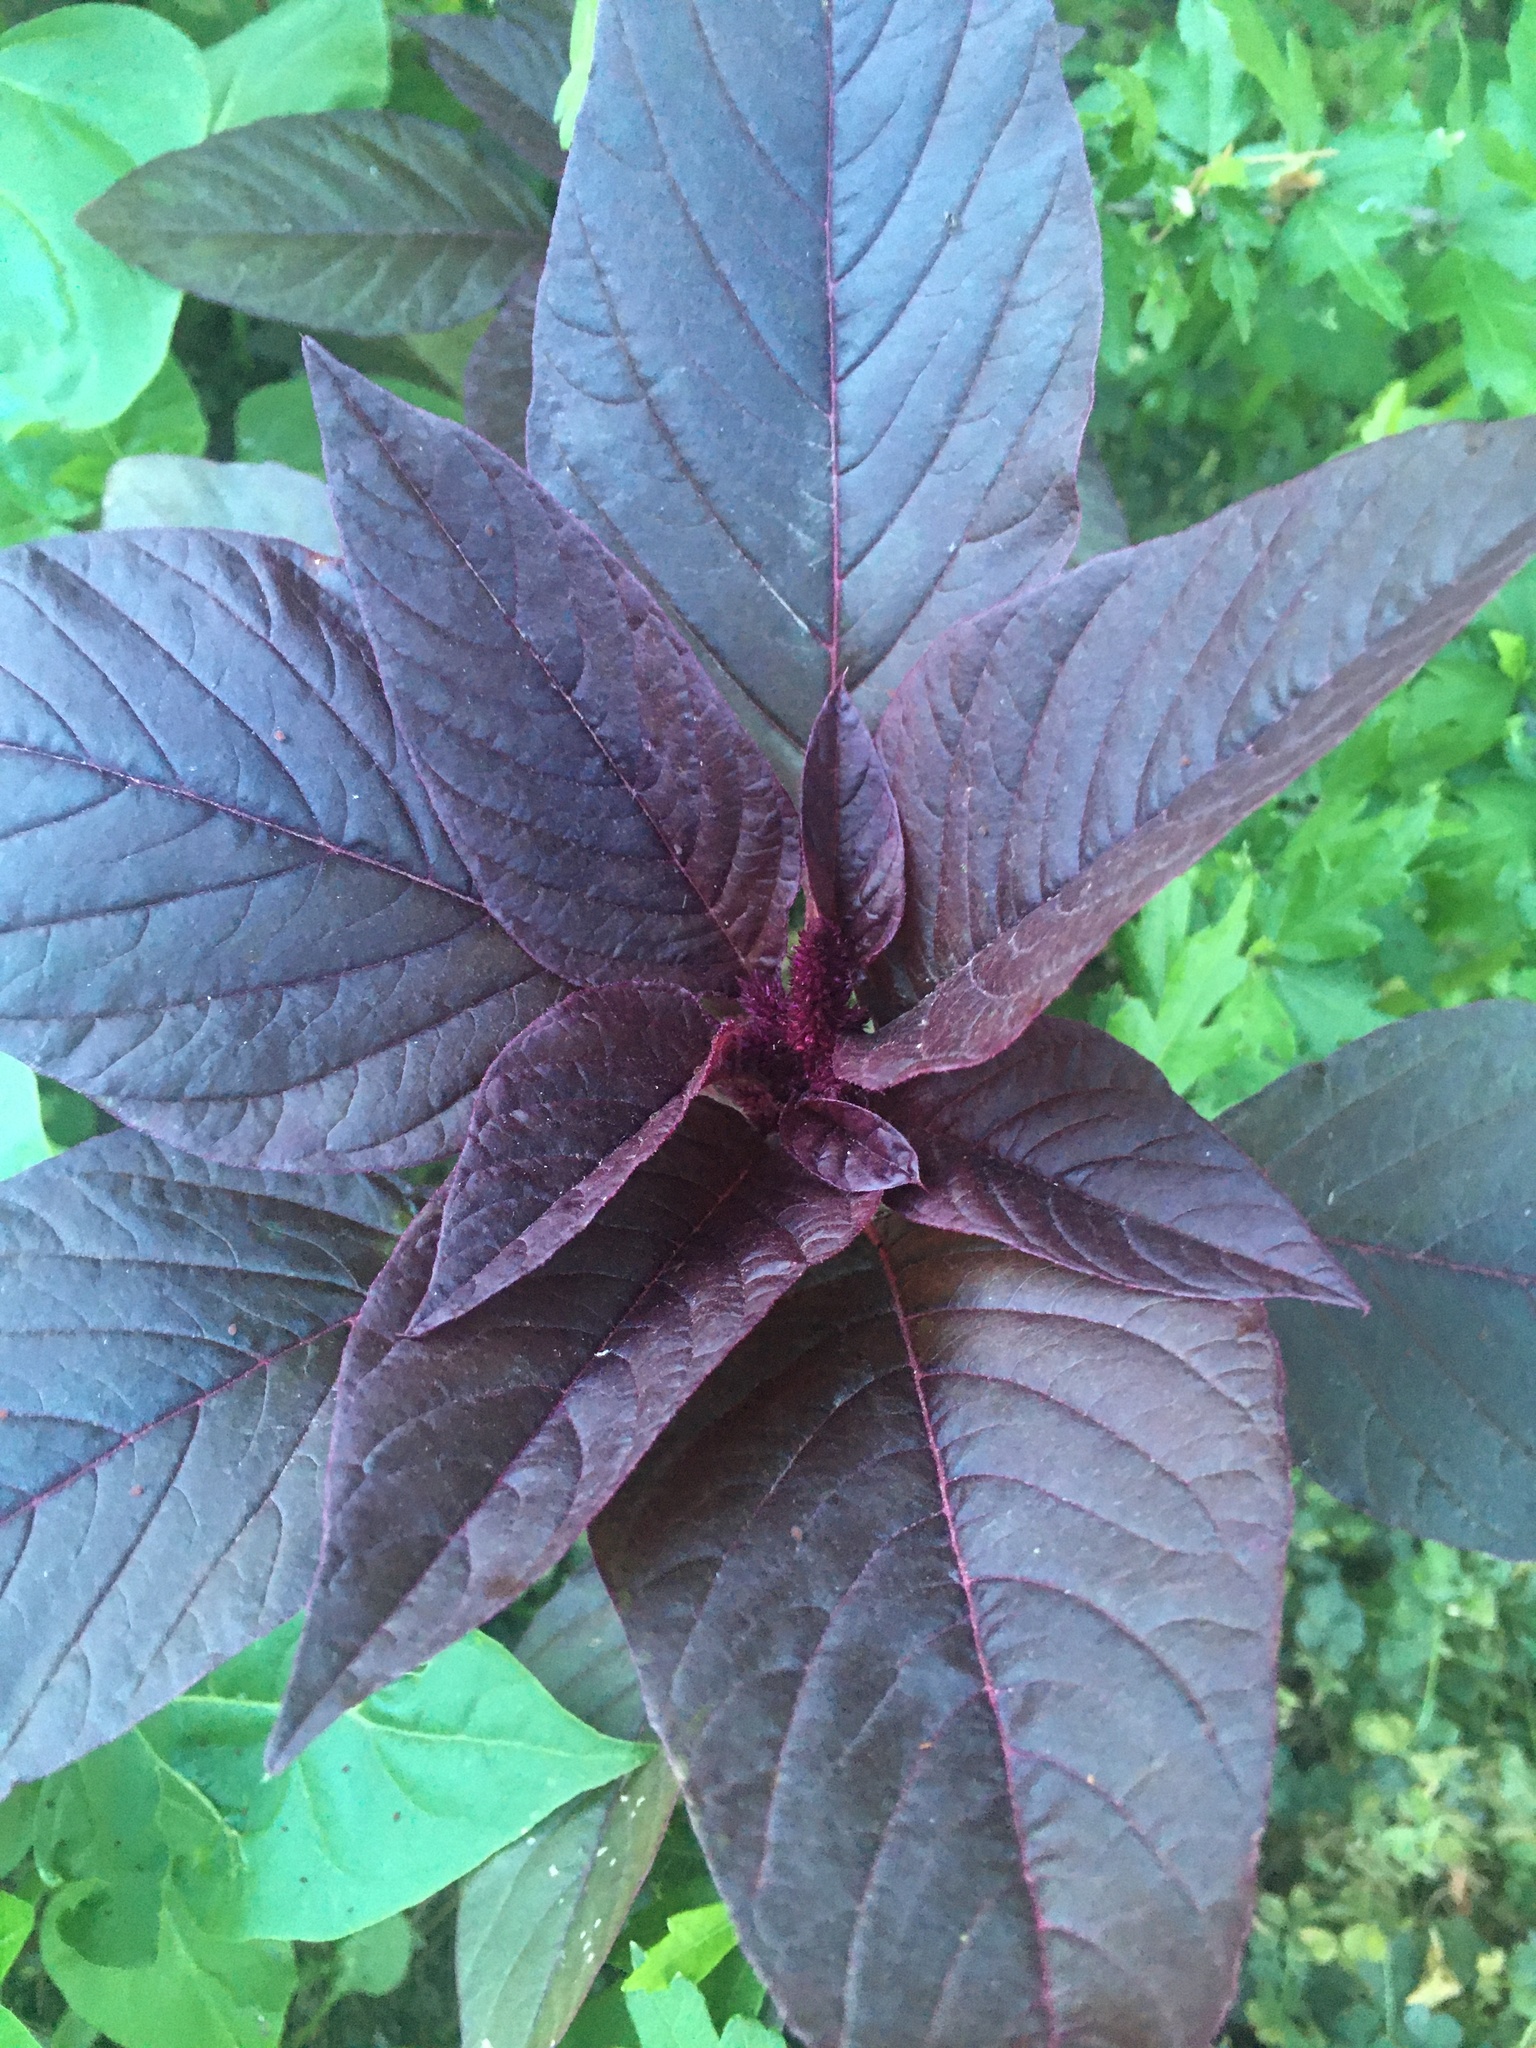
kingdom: Plantae
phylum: Tracheophyta
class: Magnoliopsida
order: Caryophyllales
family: Amaranthaceae
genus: Amaranthus
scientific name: Amaranthus cruentus
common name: Purple amaranth
